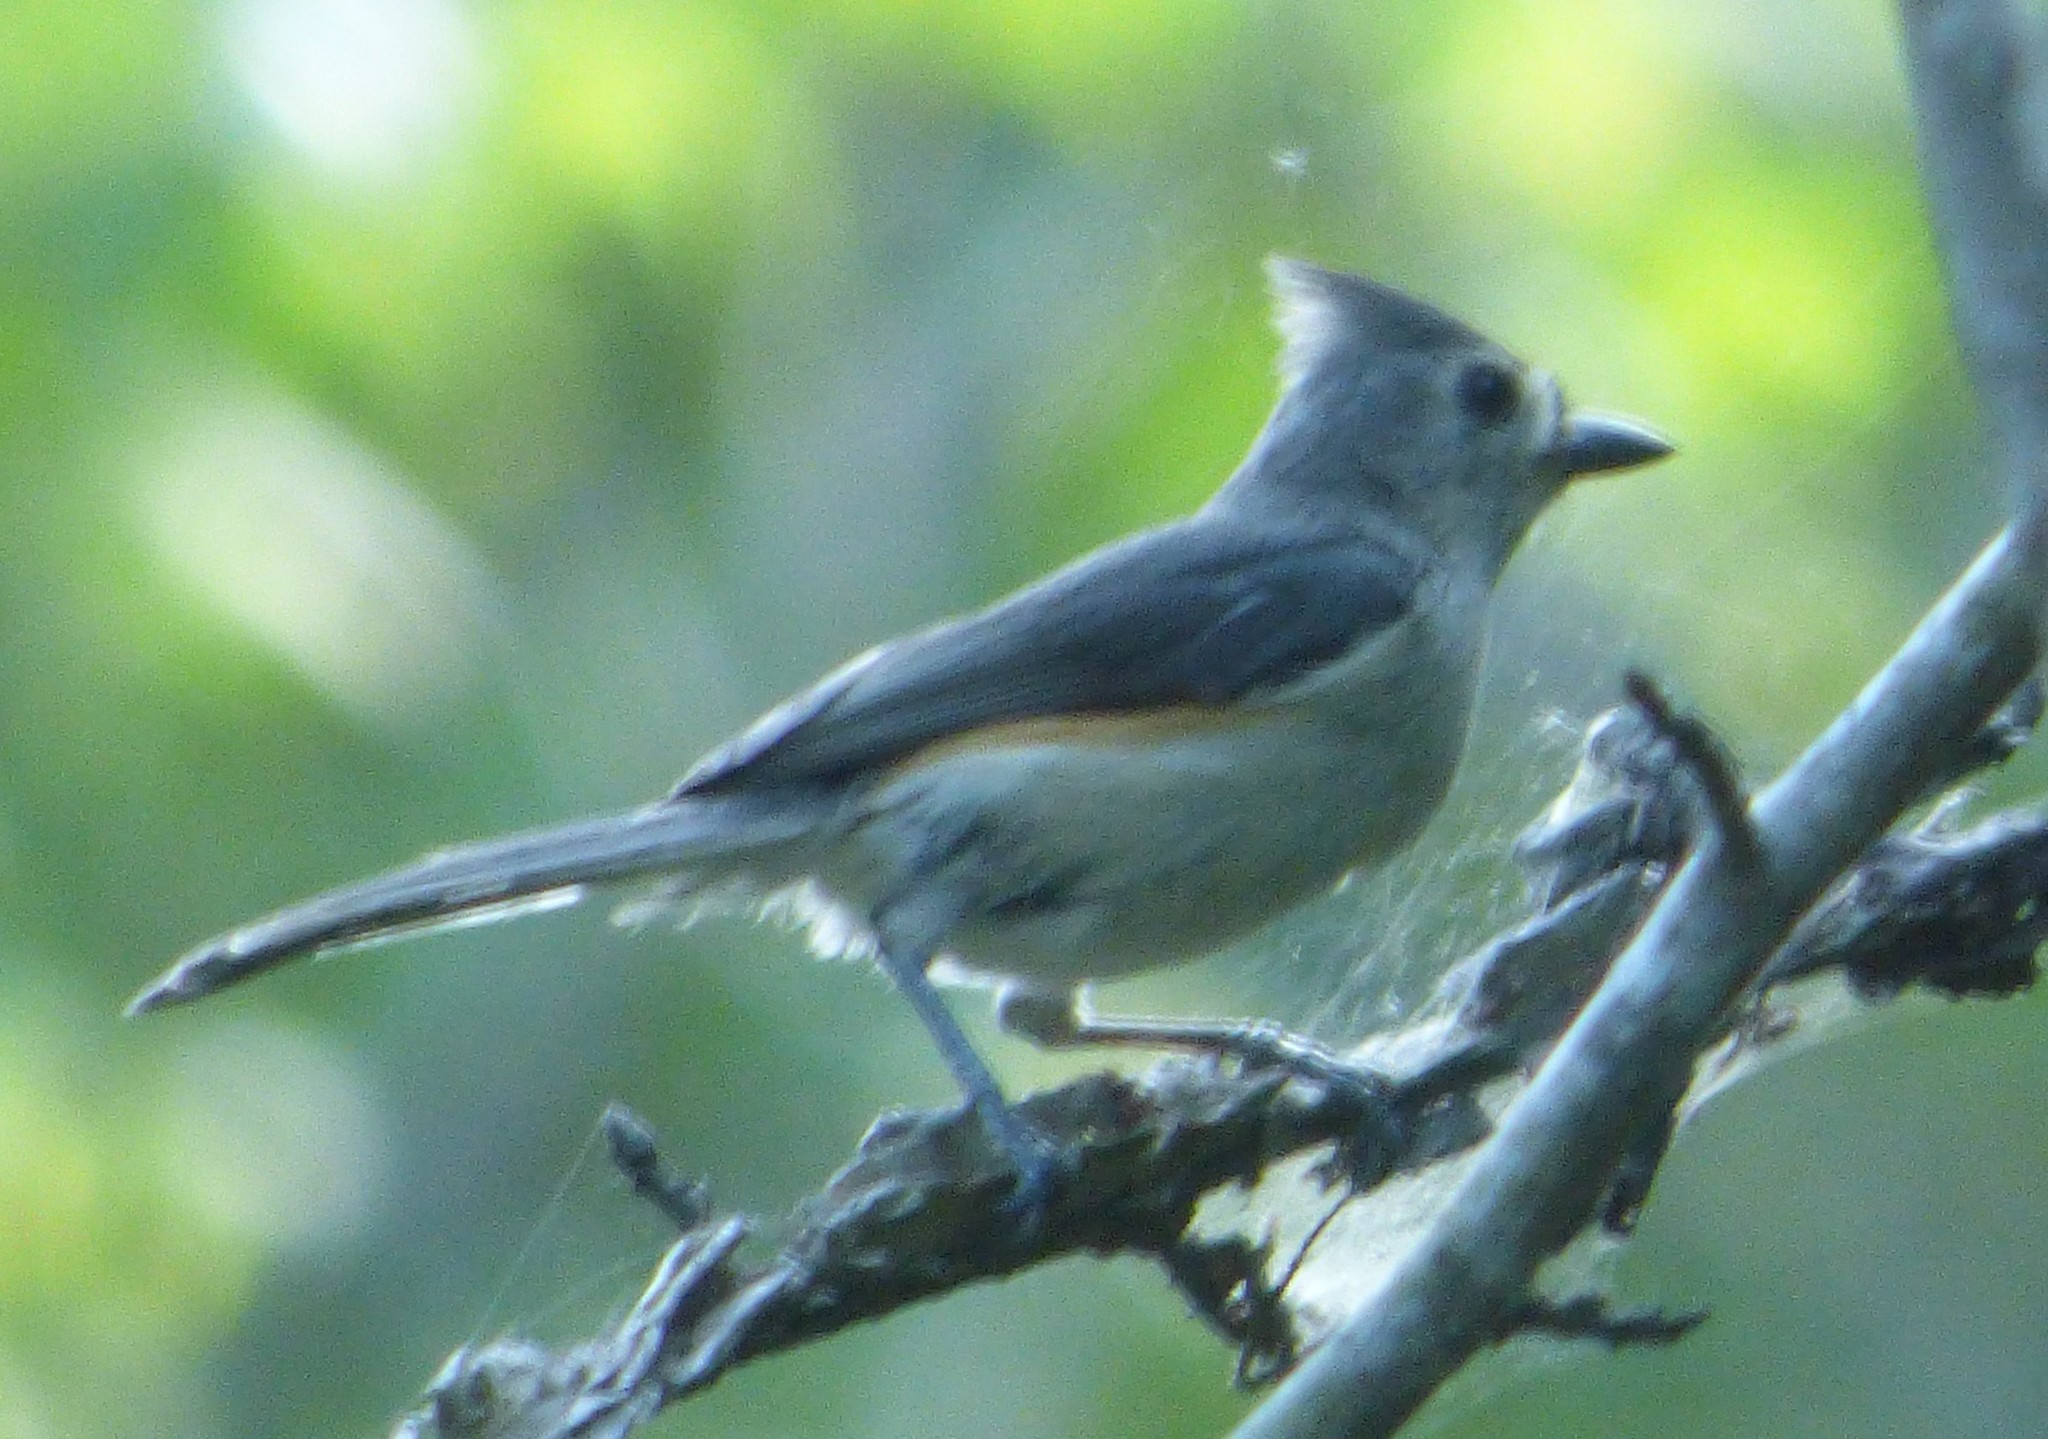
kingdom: Animalia
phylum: Chordata
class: Aves
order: Passeriformes
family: Paridae
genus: Baeolophus
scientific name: Baeolophus bicolor
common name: Tufted titmouse
